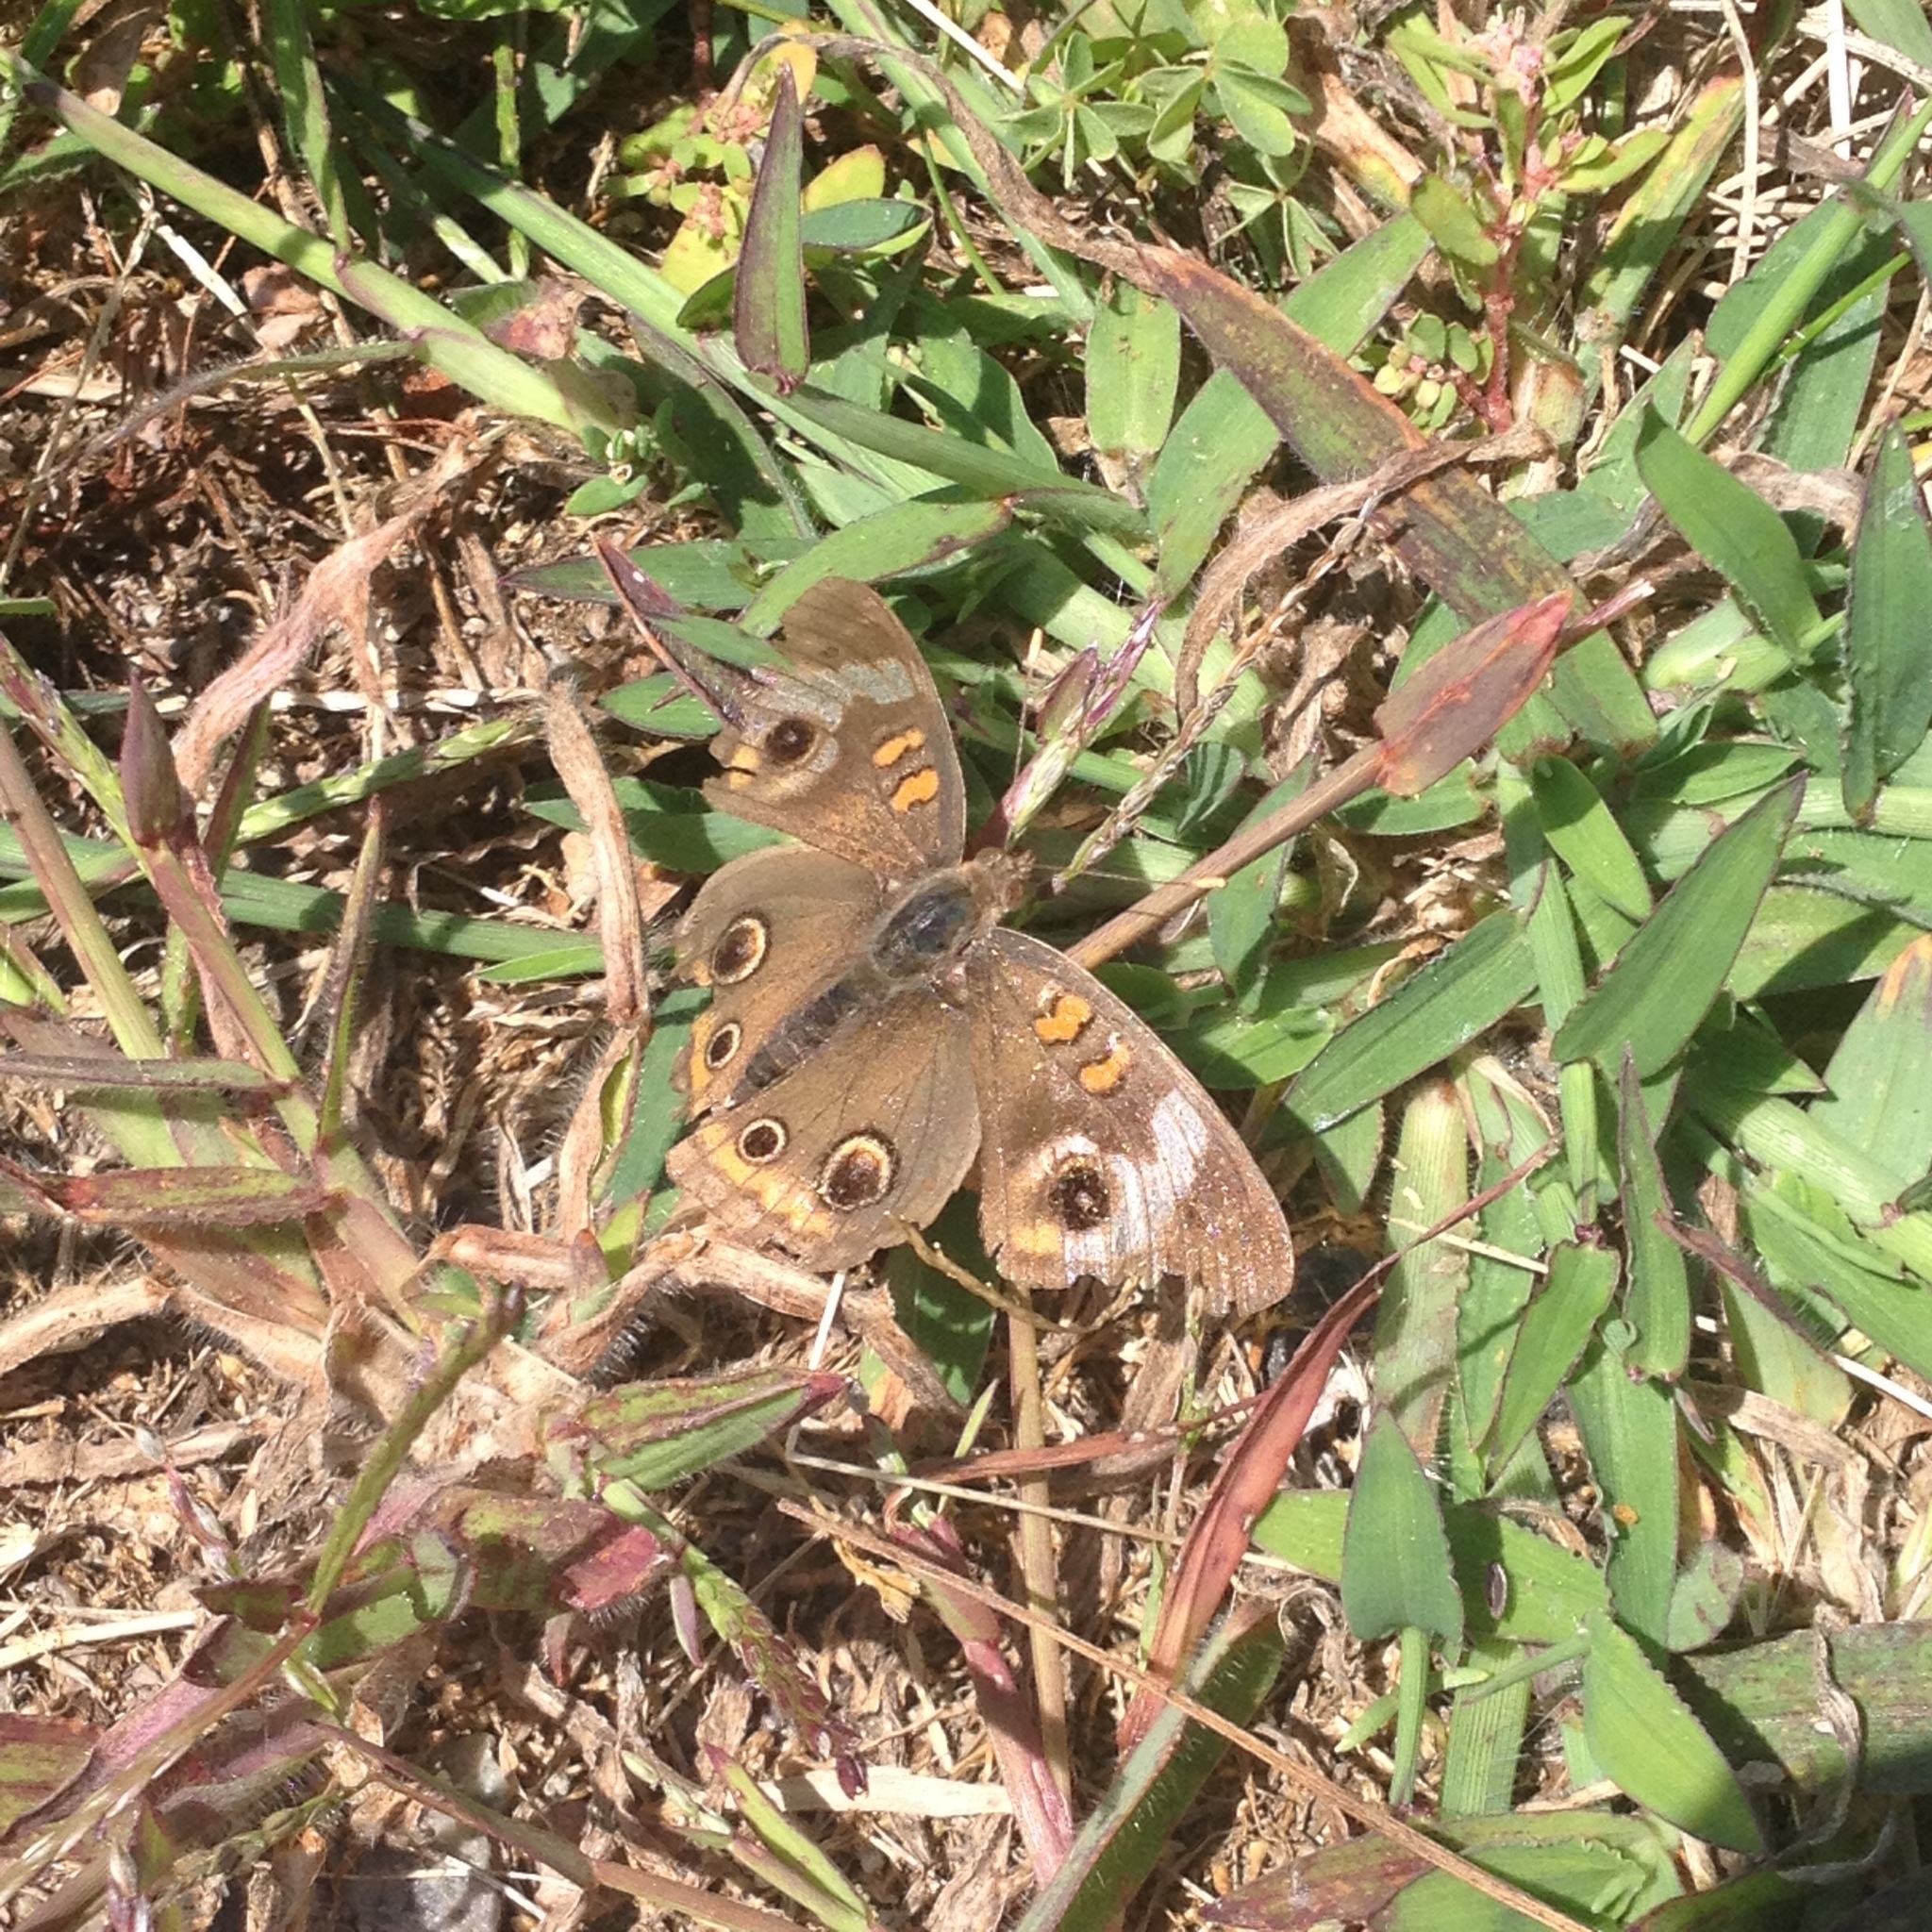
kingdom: Animalia
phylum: Arthropoda
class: Insecta
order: Lepidoptera
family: Nymphalidae
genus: Junonia
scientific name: Junonia coenia
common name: Common buckeye
